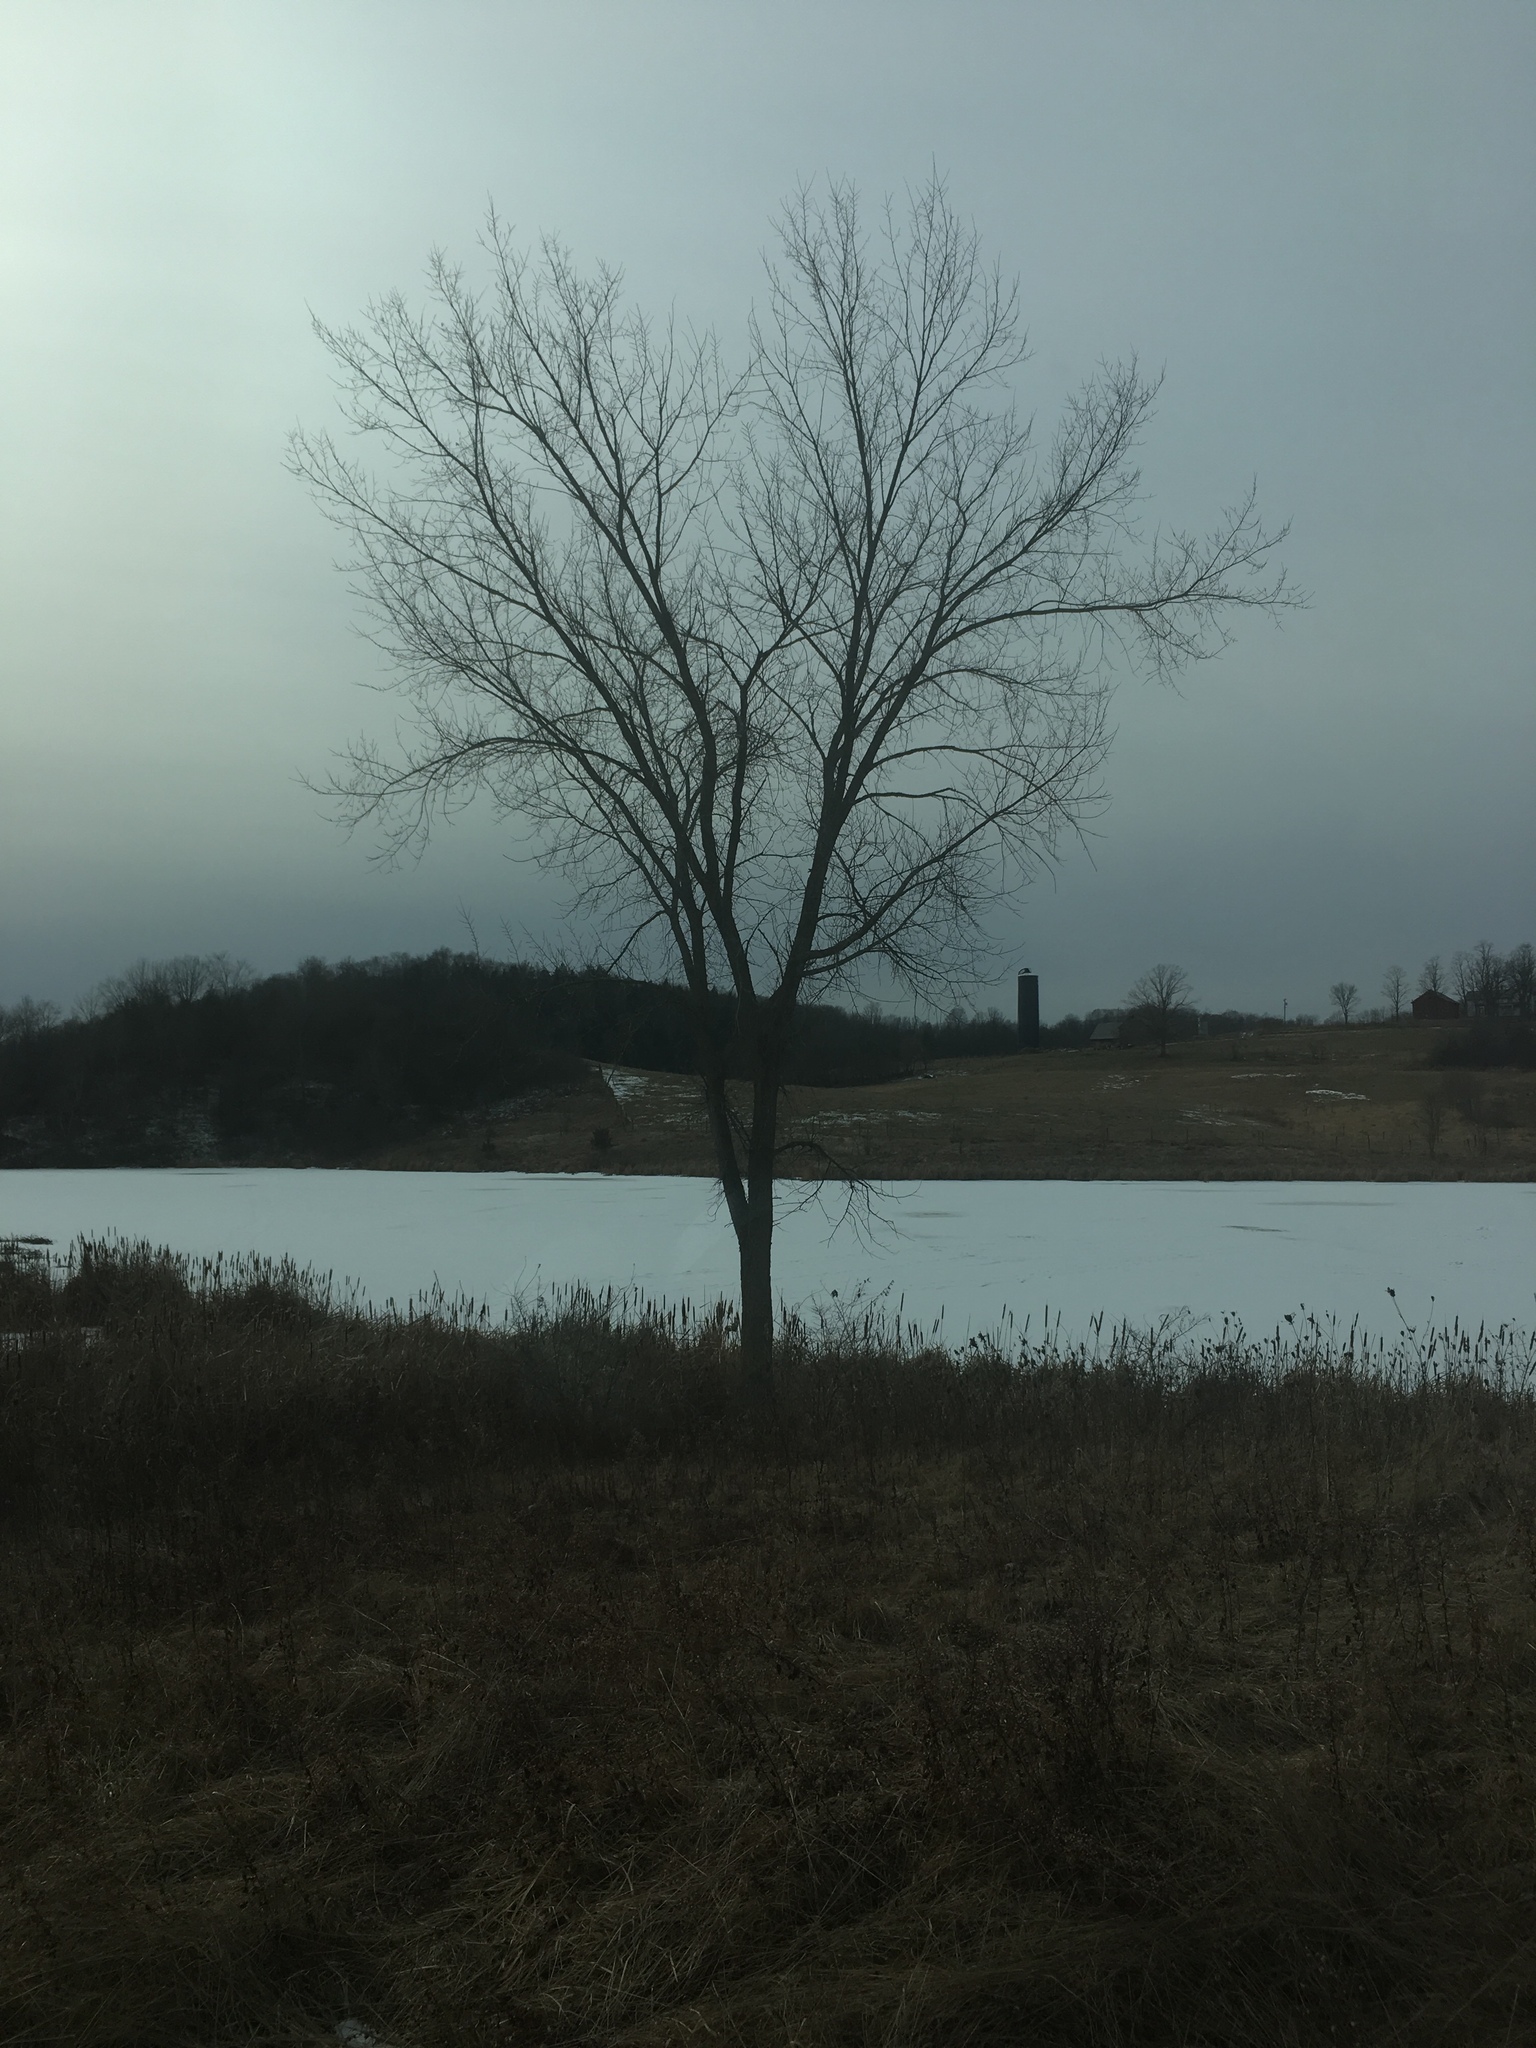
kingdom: Plantae
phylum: Tracheophyta
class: Magnoliopsida
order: Rosales
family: Ulmaceae
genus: Ulmus
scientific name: Ulmus americana
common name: American elm
